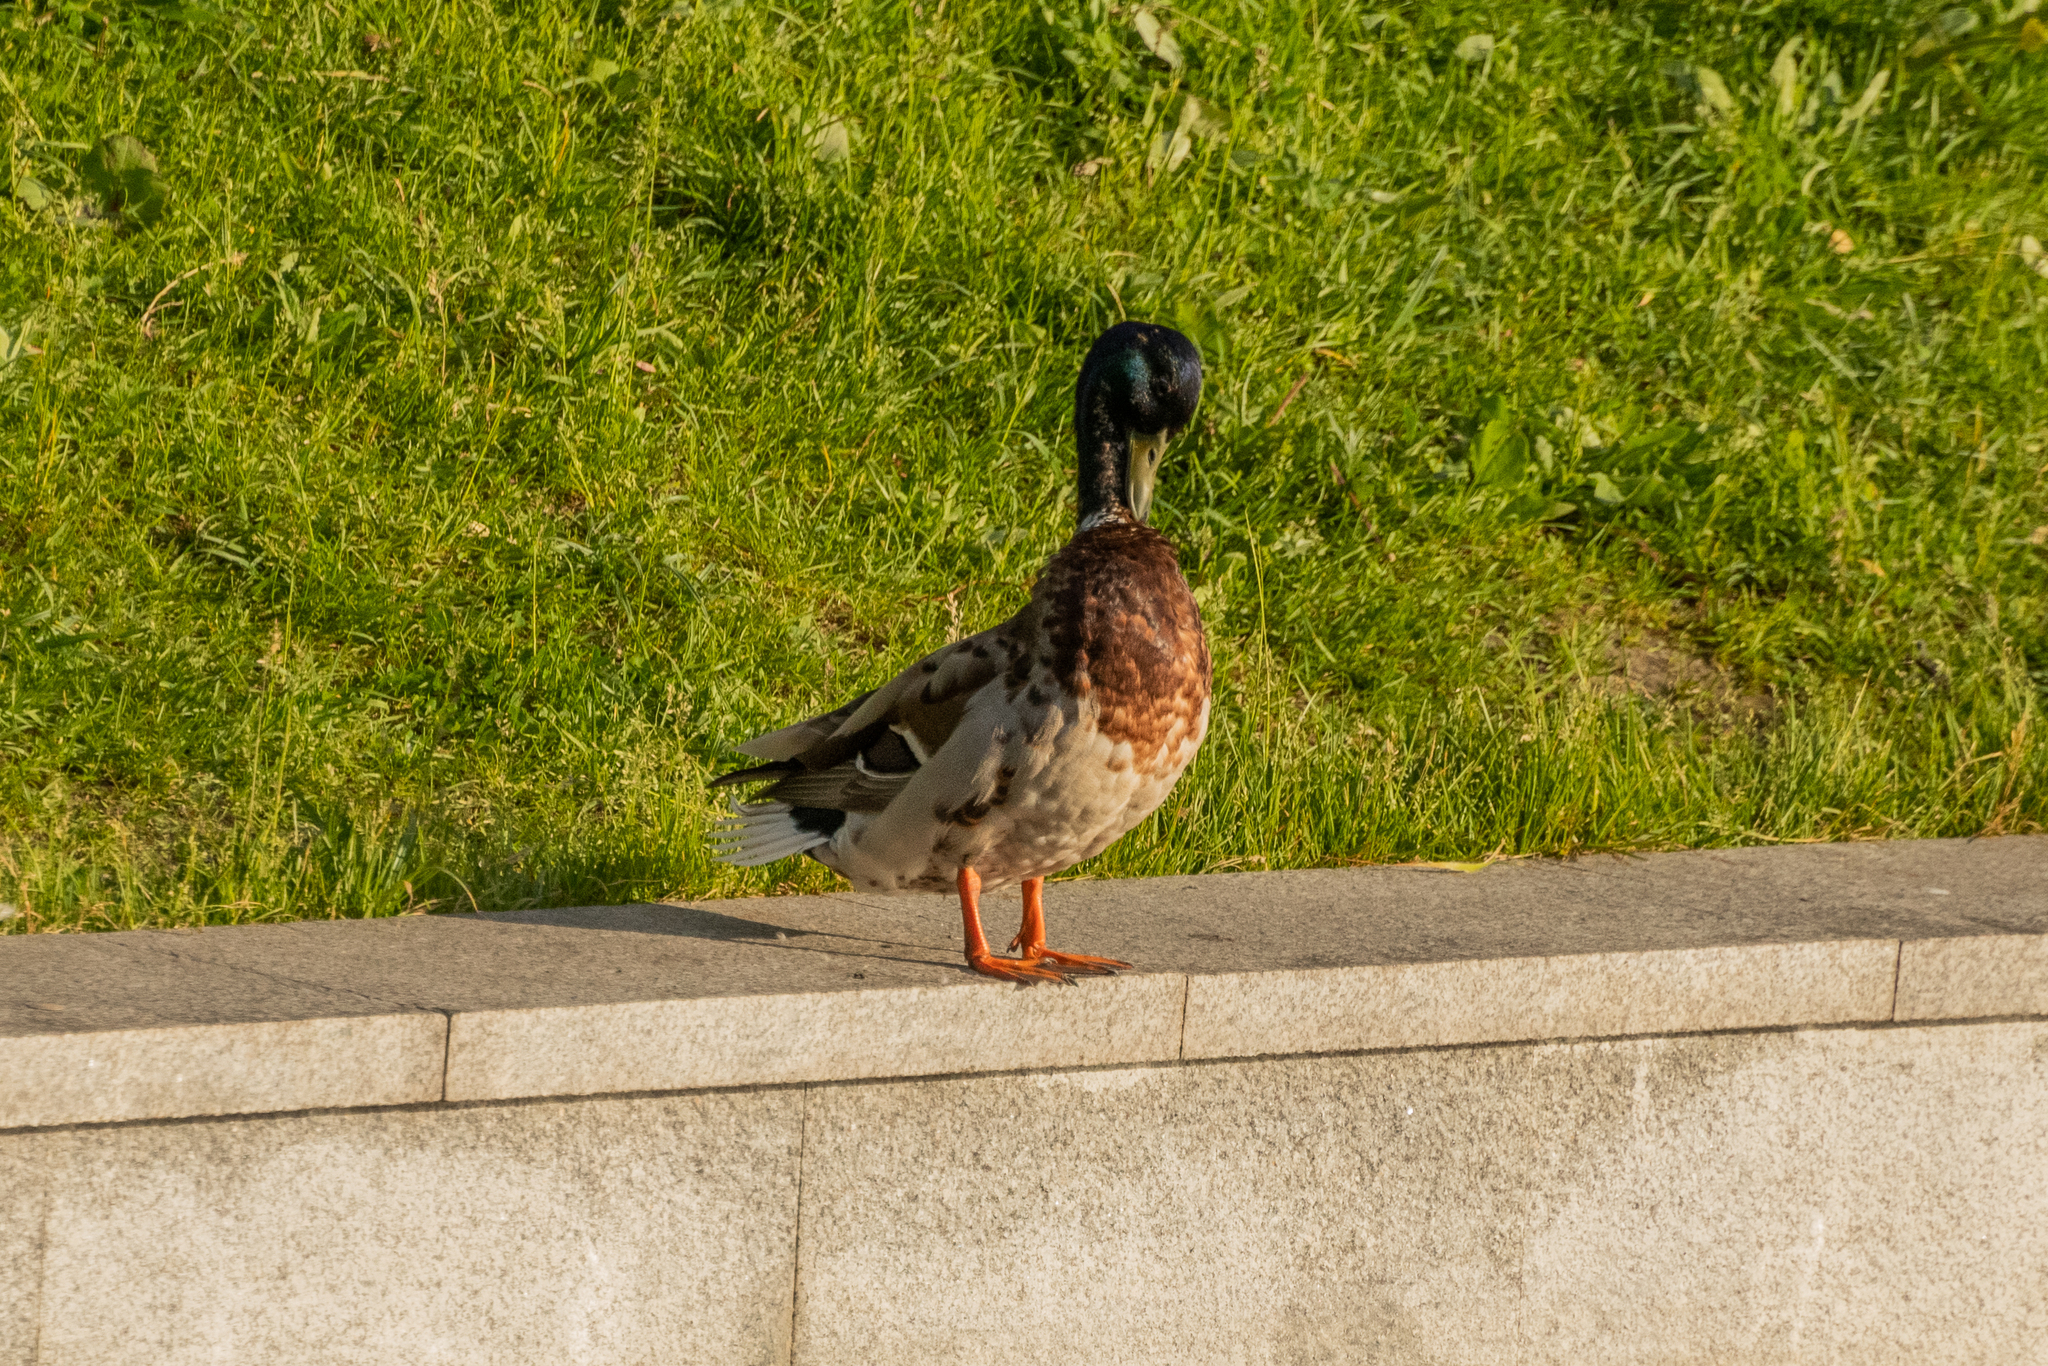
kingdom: Animalia
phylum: Chordata
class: Aves
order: Anseriformes
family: Anatidae
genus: Anas
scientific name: Anas platyrhynchos
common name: Mallard
